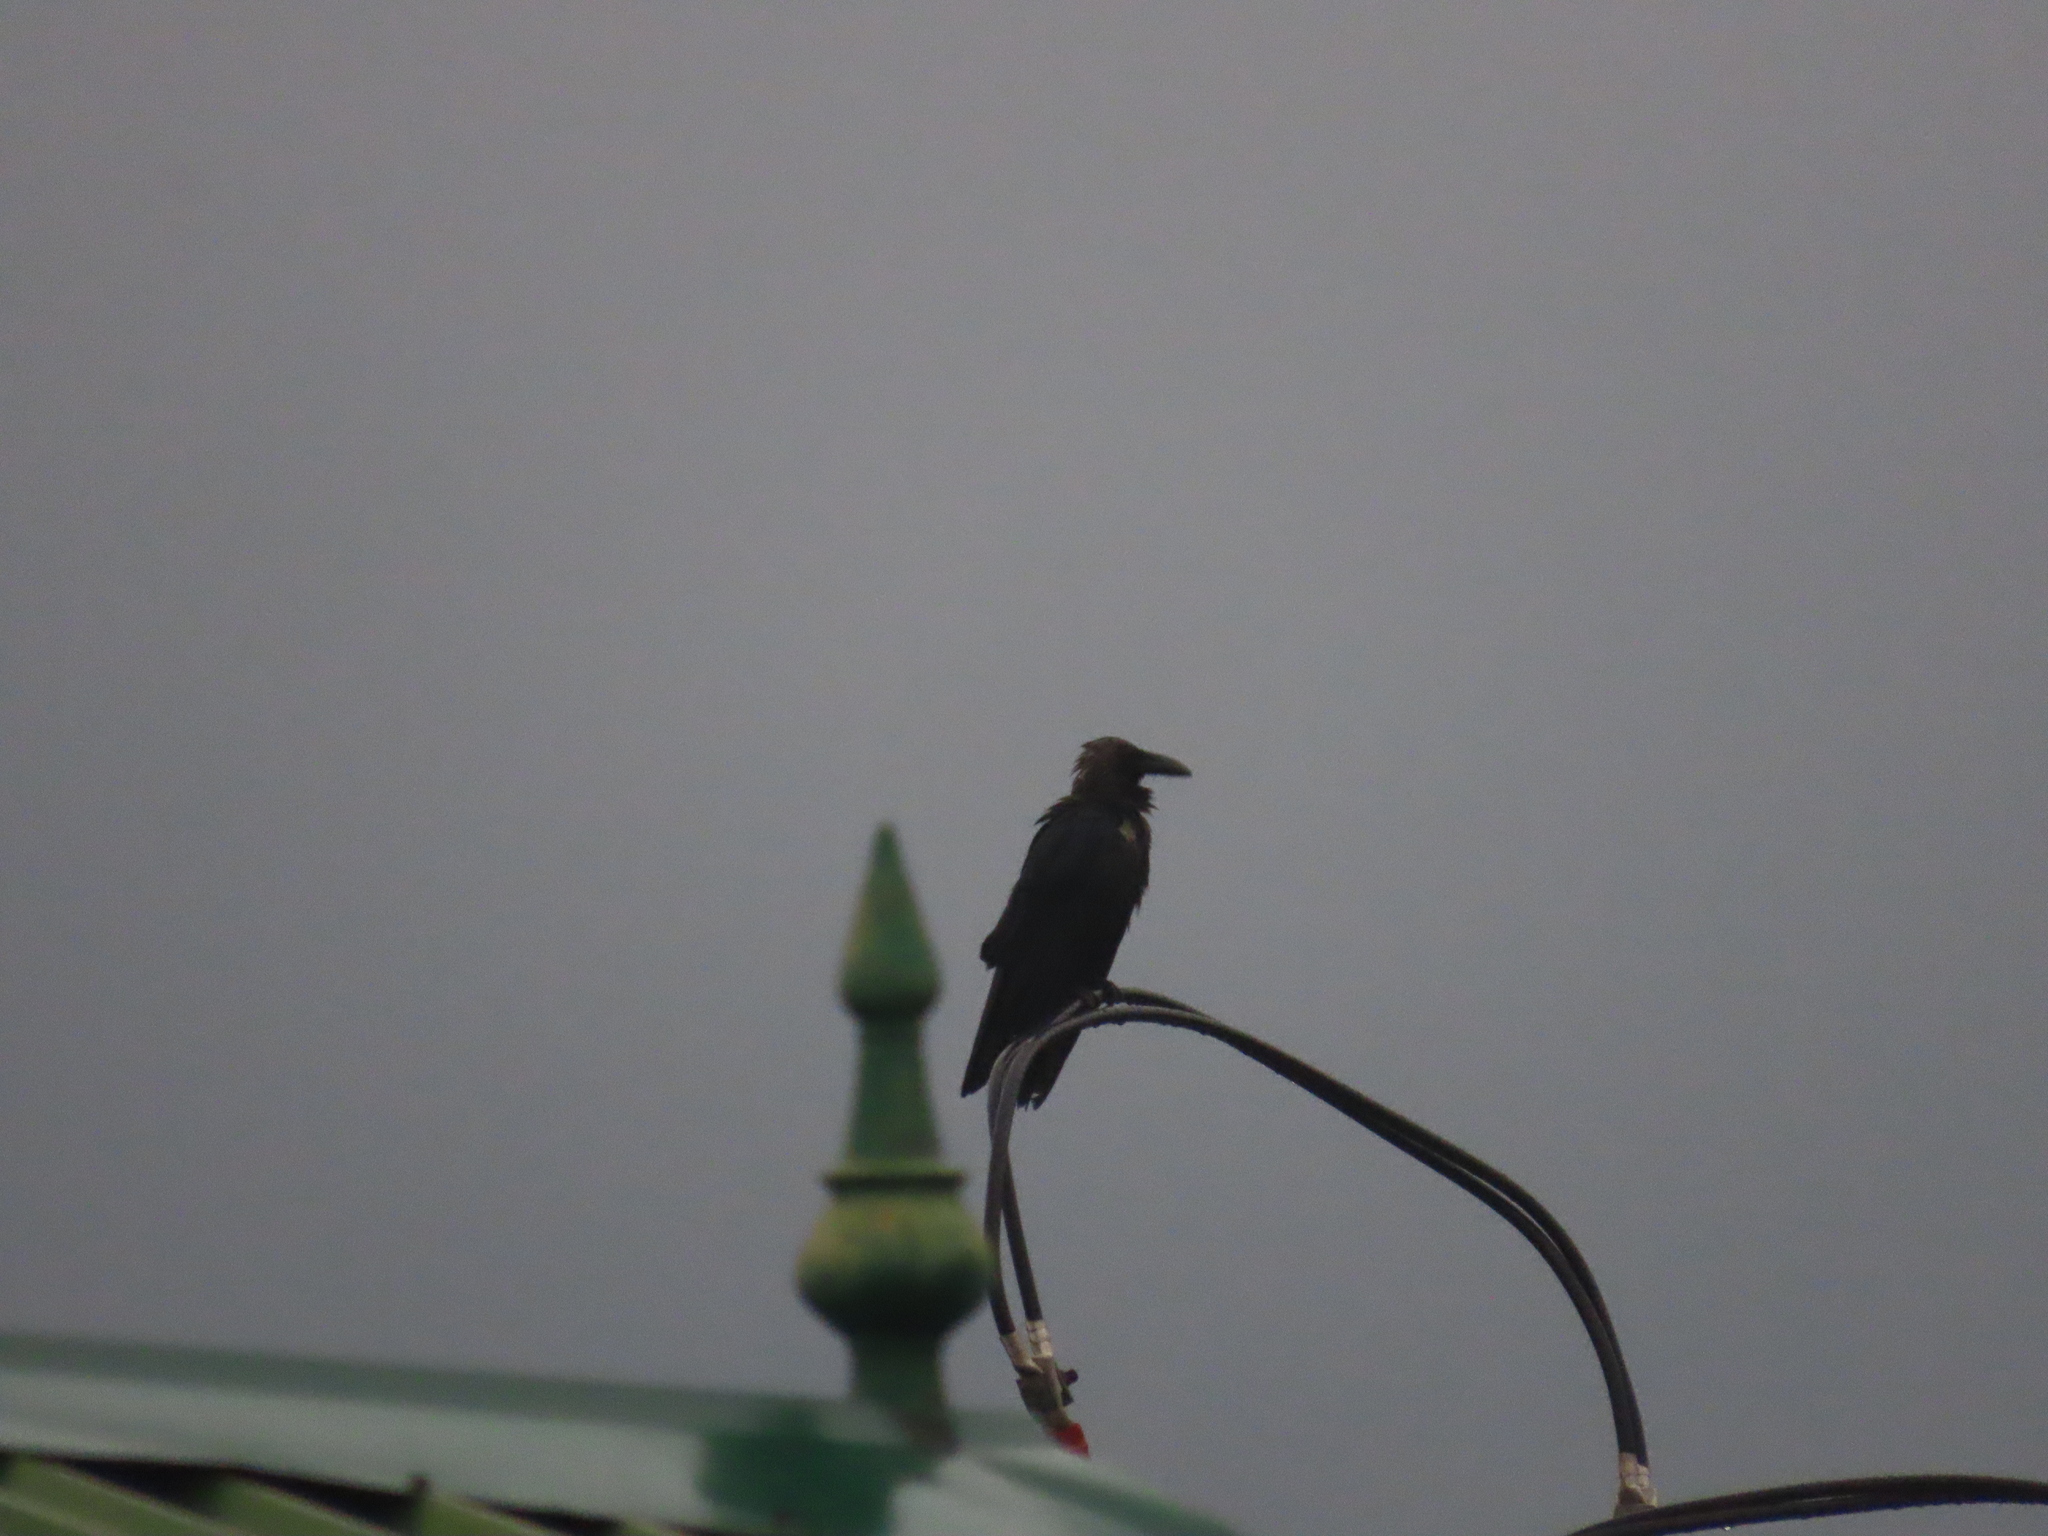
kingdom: Animalia
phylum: Chordata
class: Aves
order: Passeriformes
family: Corvidae
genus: Corvus
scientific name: Corvus splendens
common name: House crow
